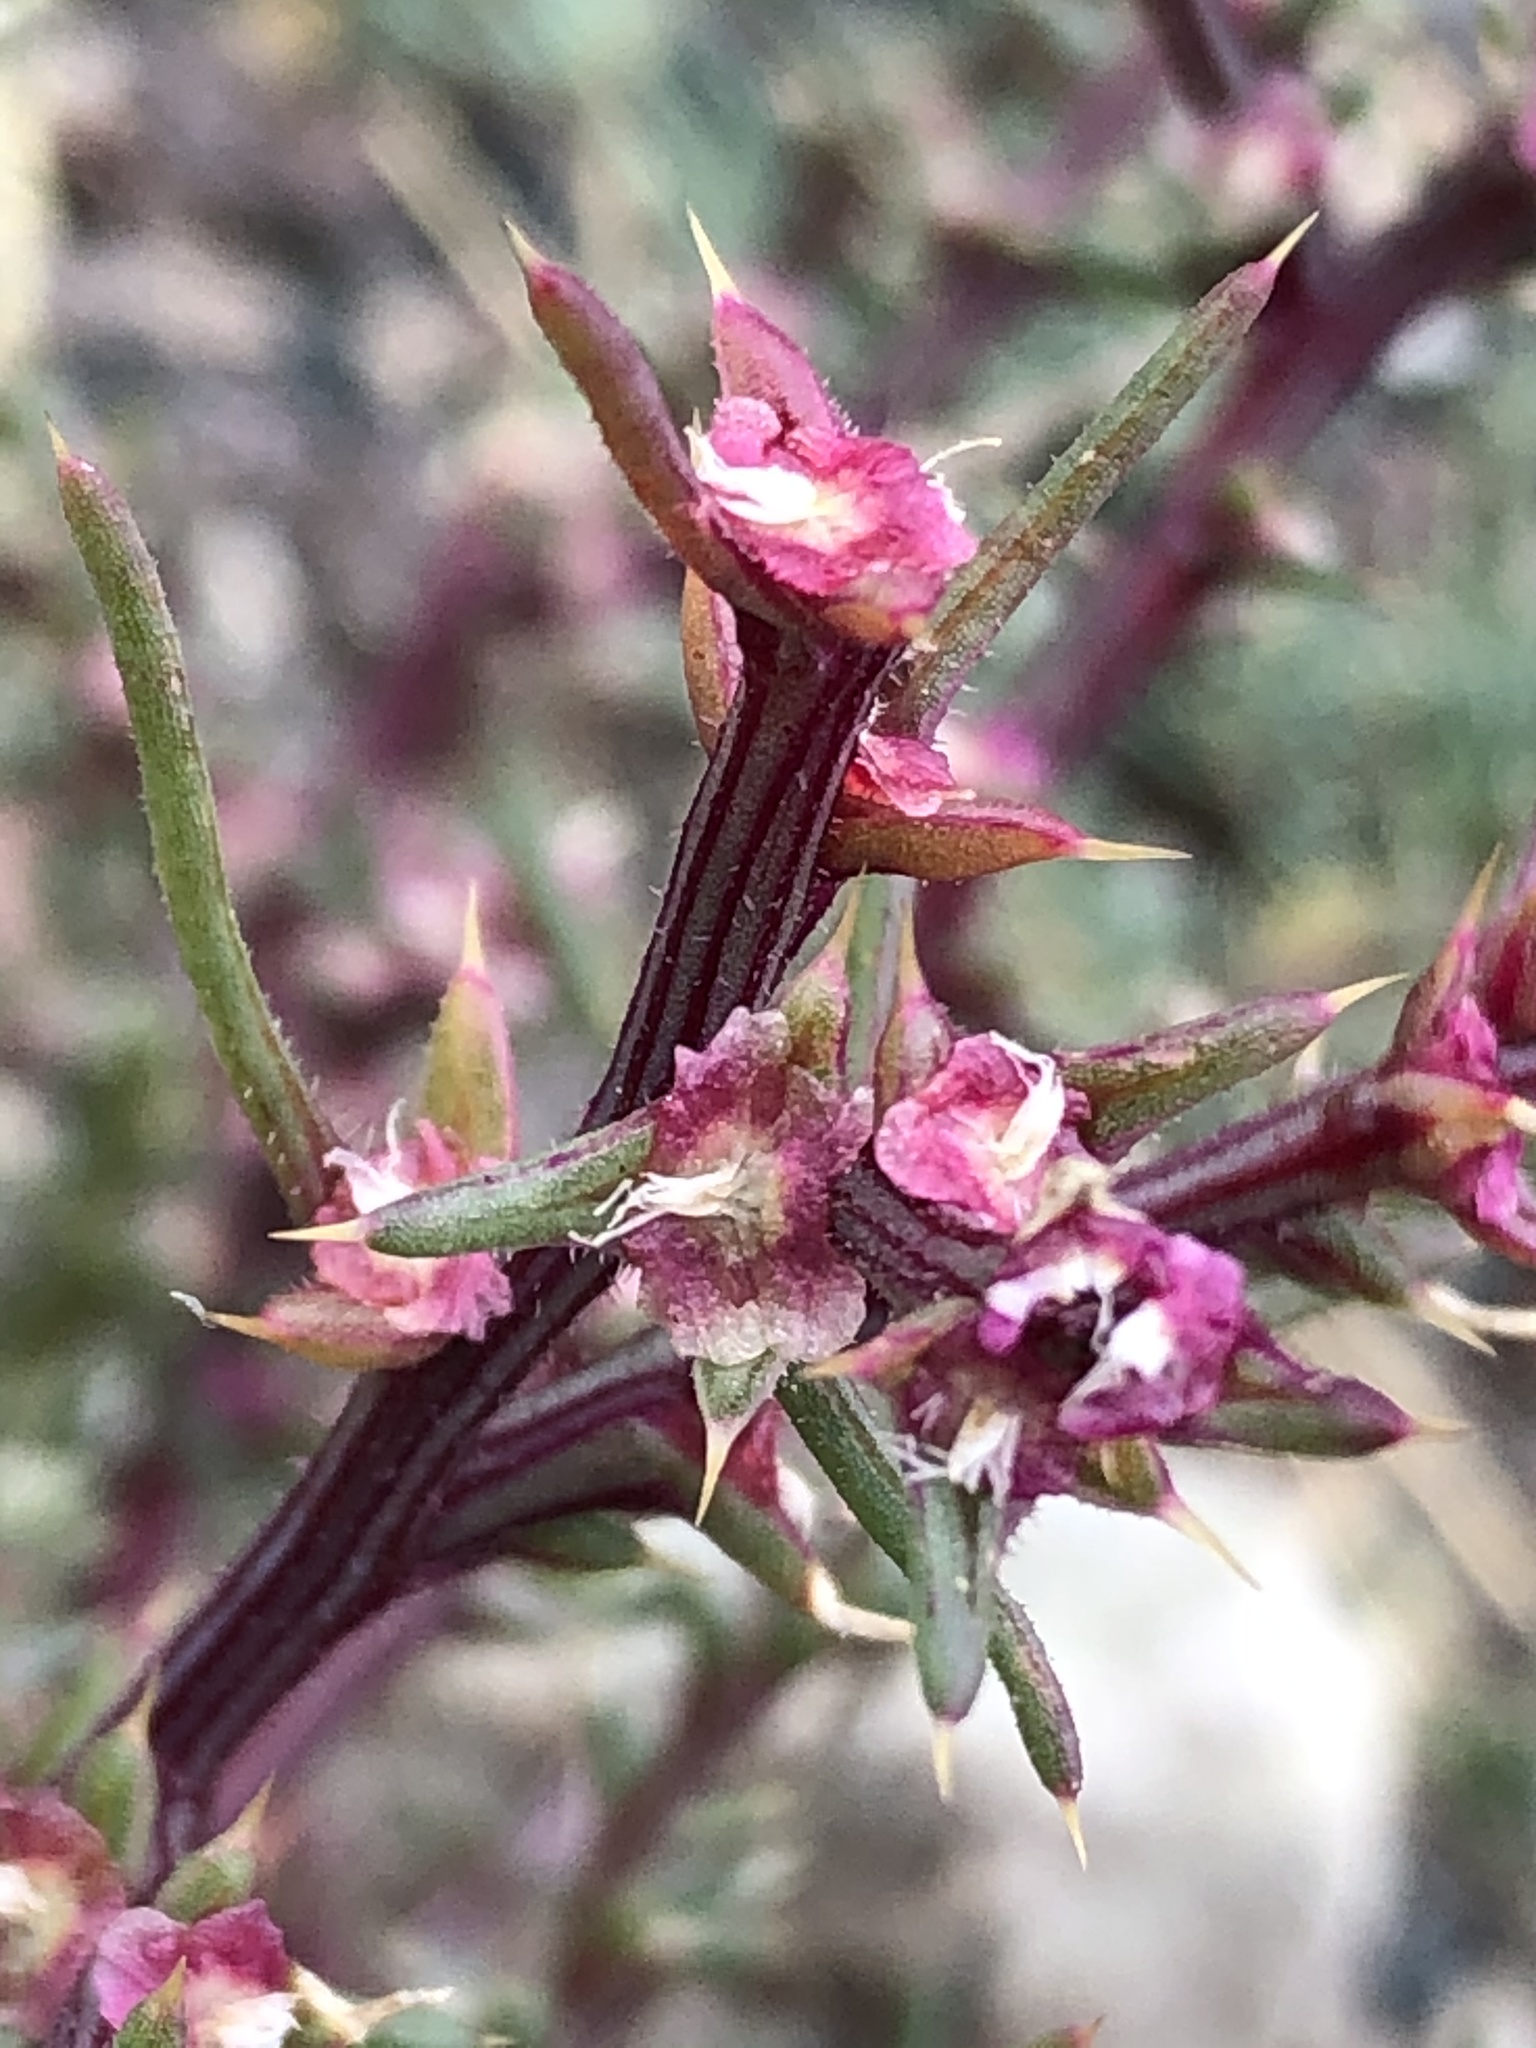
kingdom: Plantae
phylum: Tracheophyta
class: Magnoliopsida
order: Caryophyllales
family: Amaranthaceae
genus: Salsola
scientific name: Salsola tragus
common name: Prickly russian thistle
